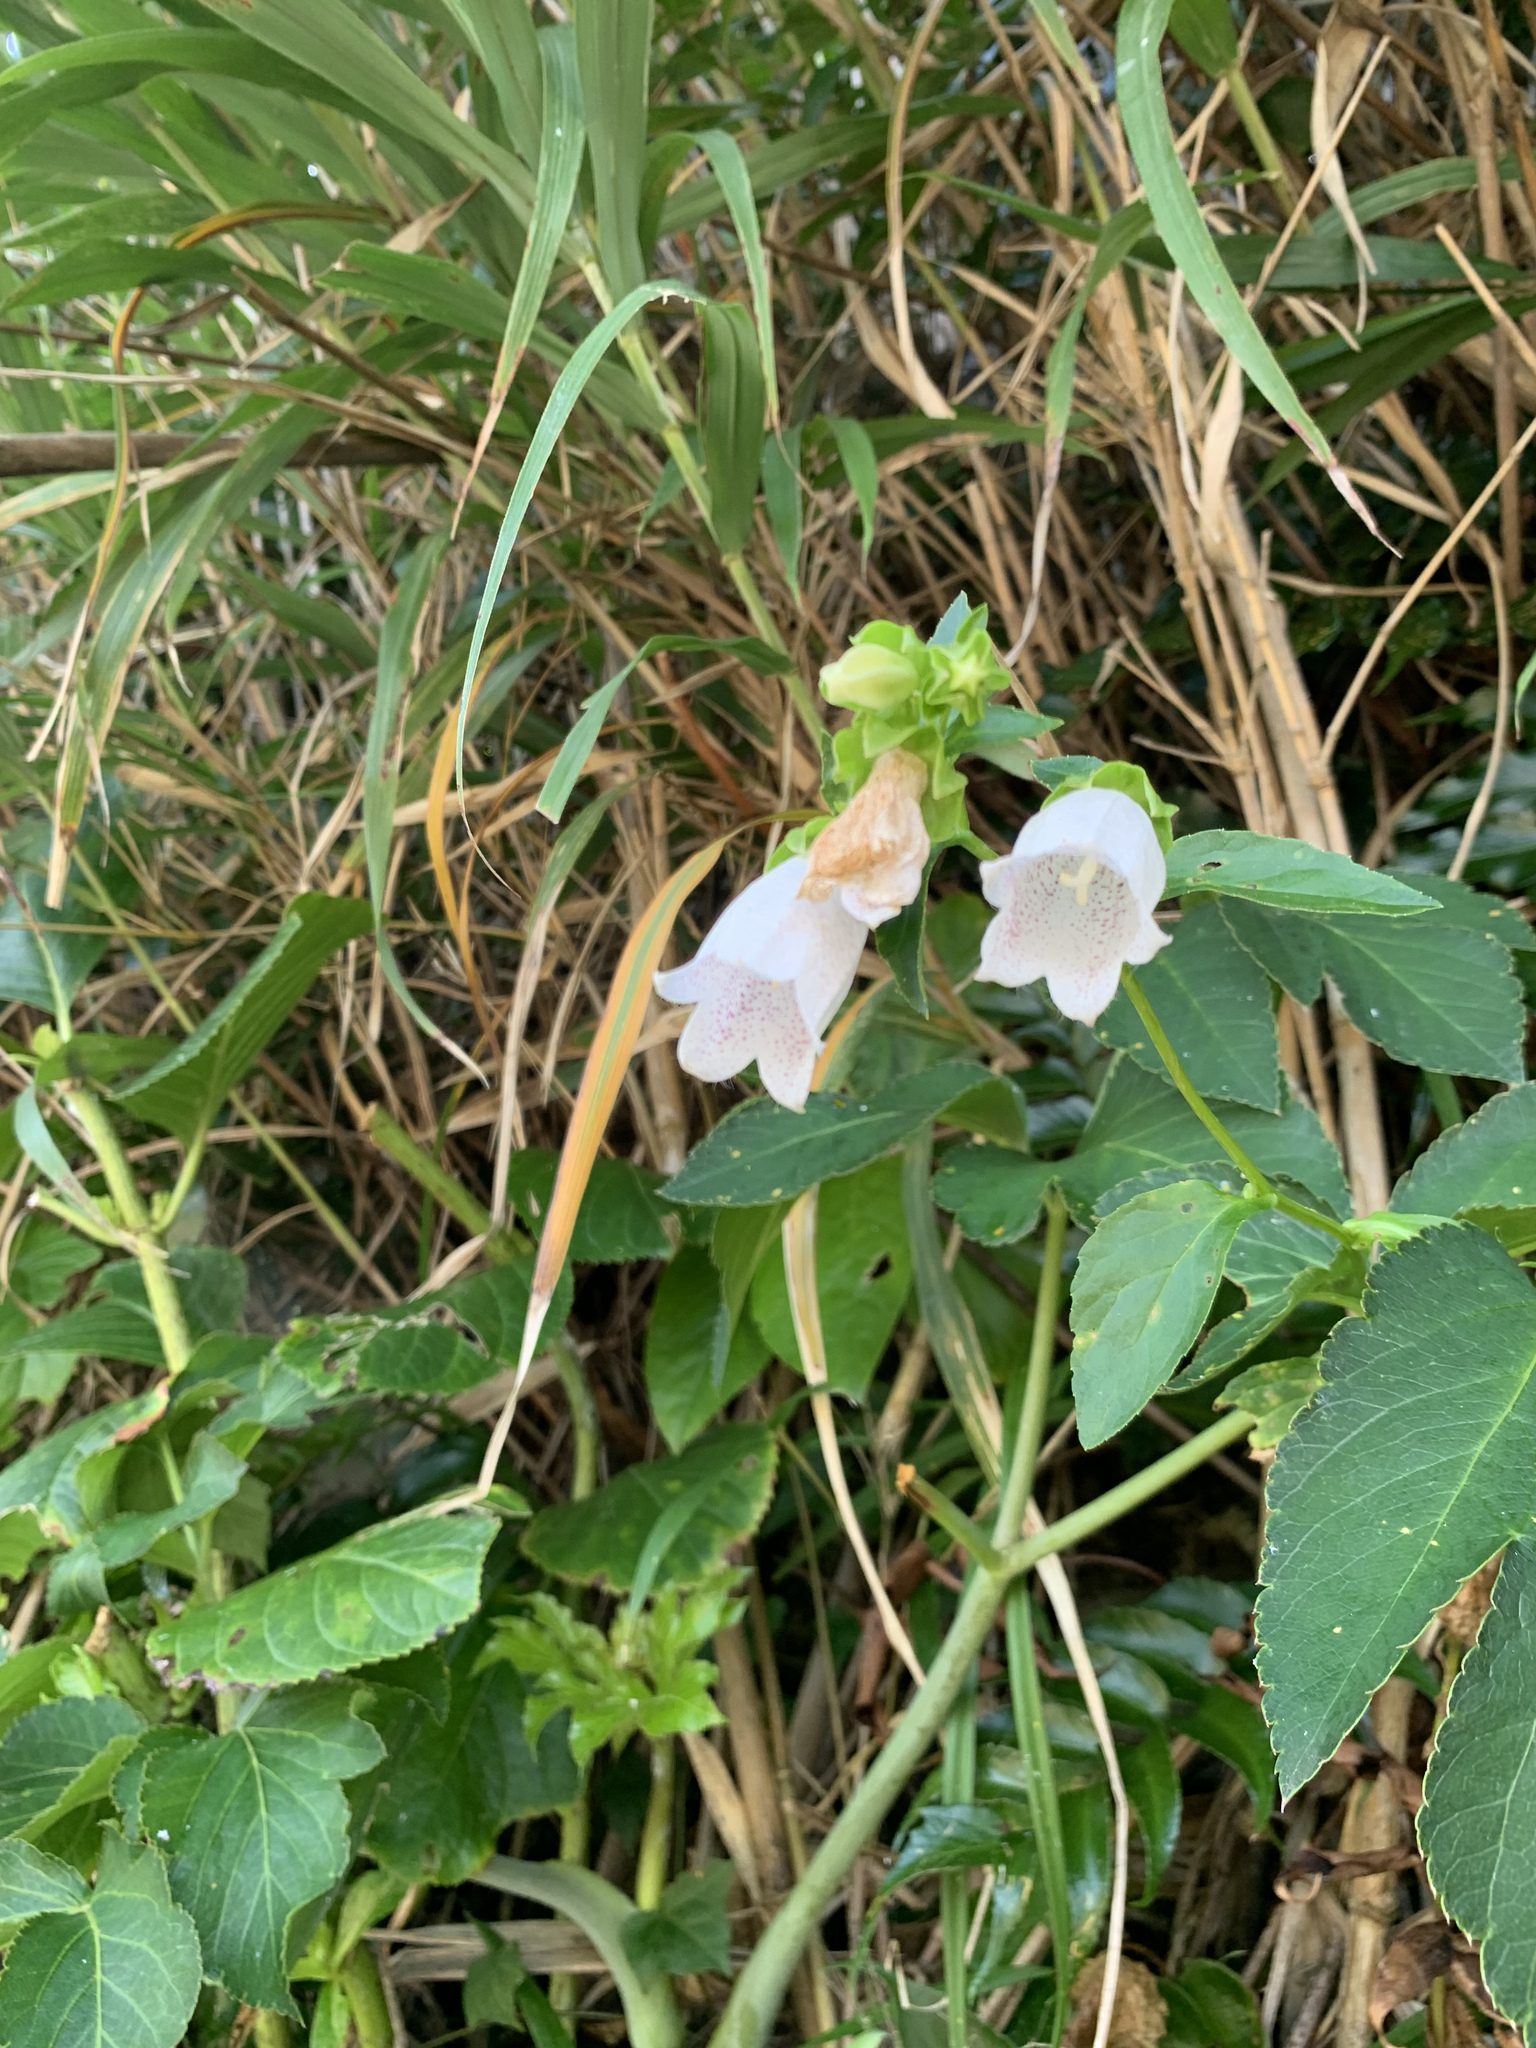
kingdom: Plantae
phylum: Tracheophyta
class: Magnoliopsida
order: Asterales
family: Campanulaceae
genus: Campanula
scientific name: Campanula microdonta
